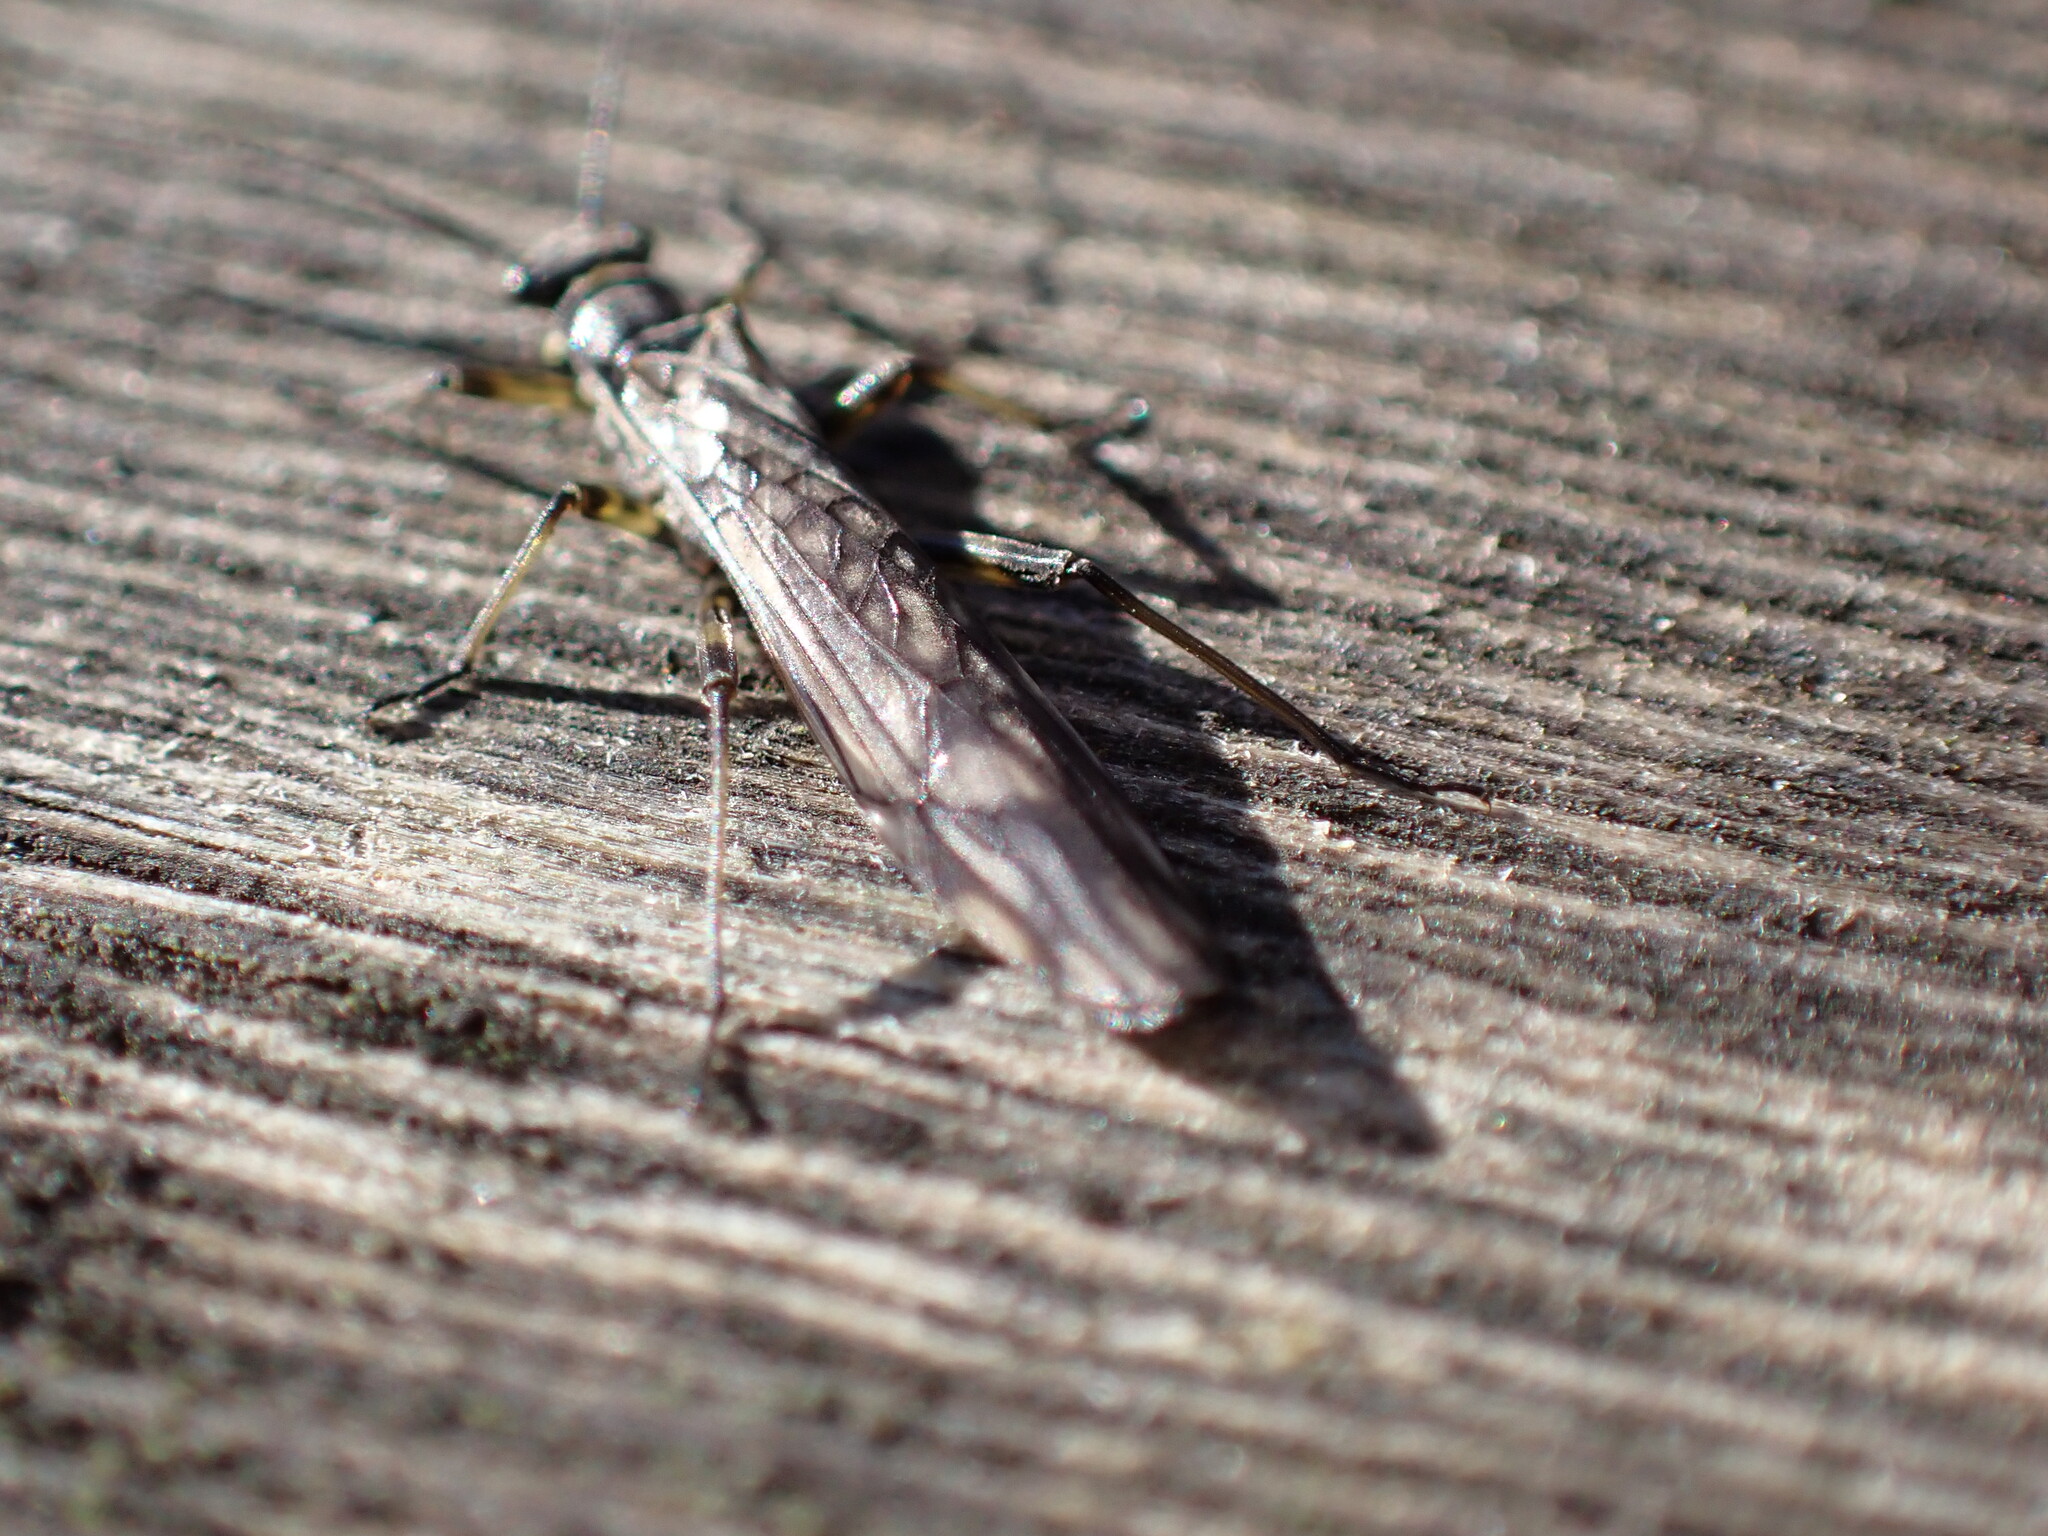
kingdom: Animalia
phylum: Arthropoda
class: Insecta
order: Plecoptera
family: Nemouridae
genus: Protonemura
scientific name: Protonemura meyeri
